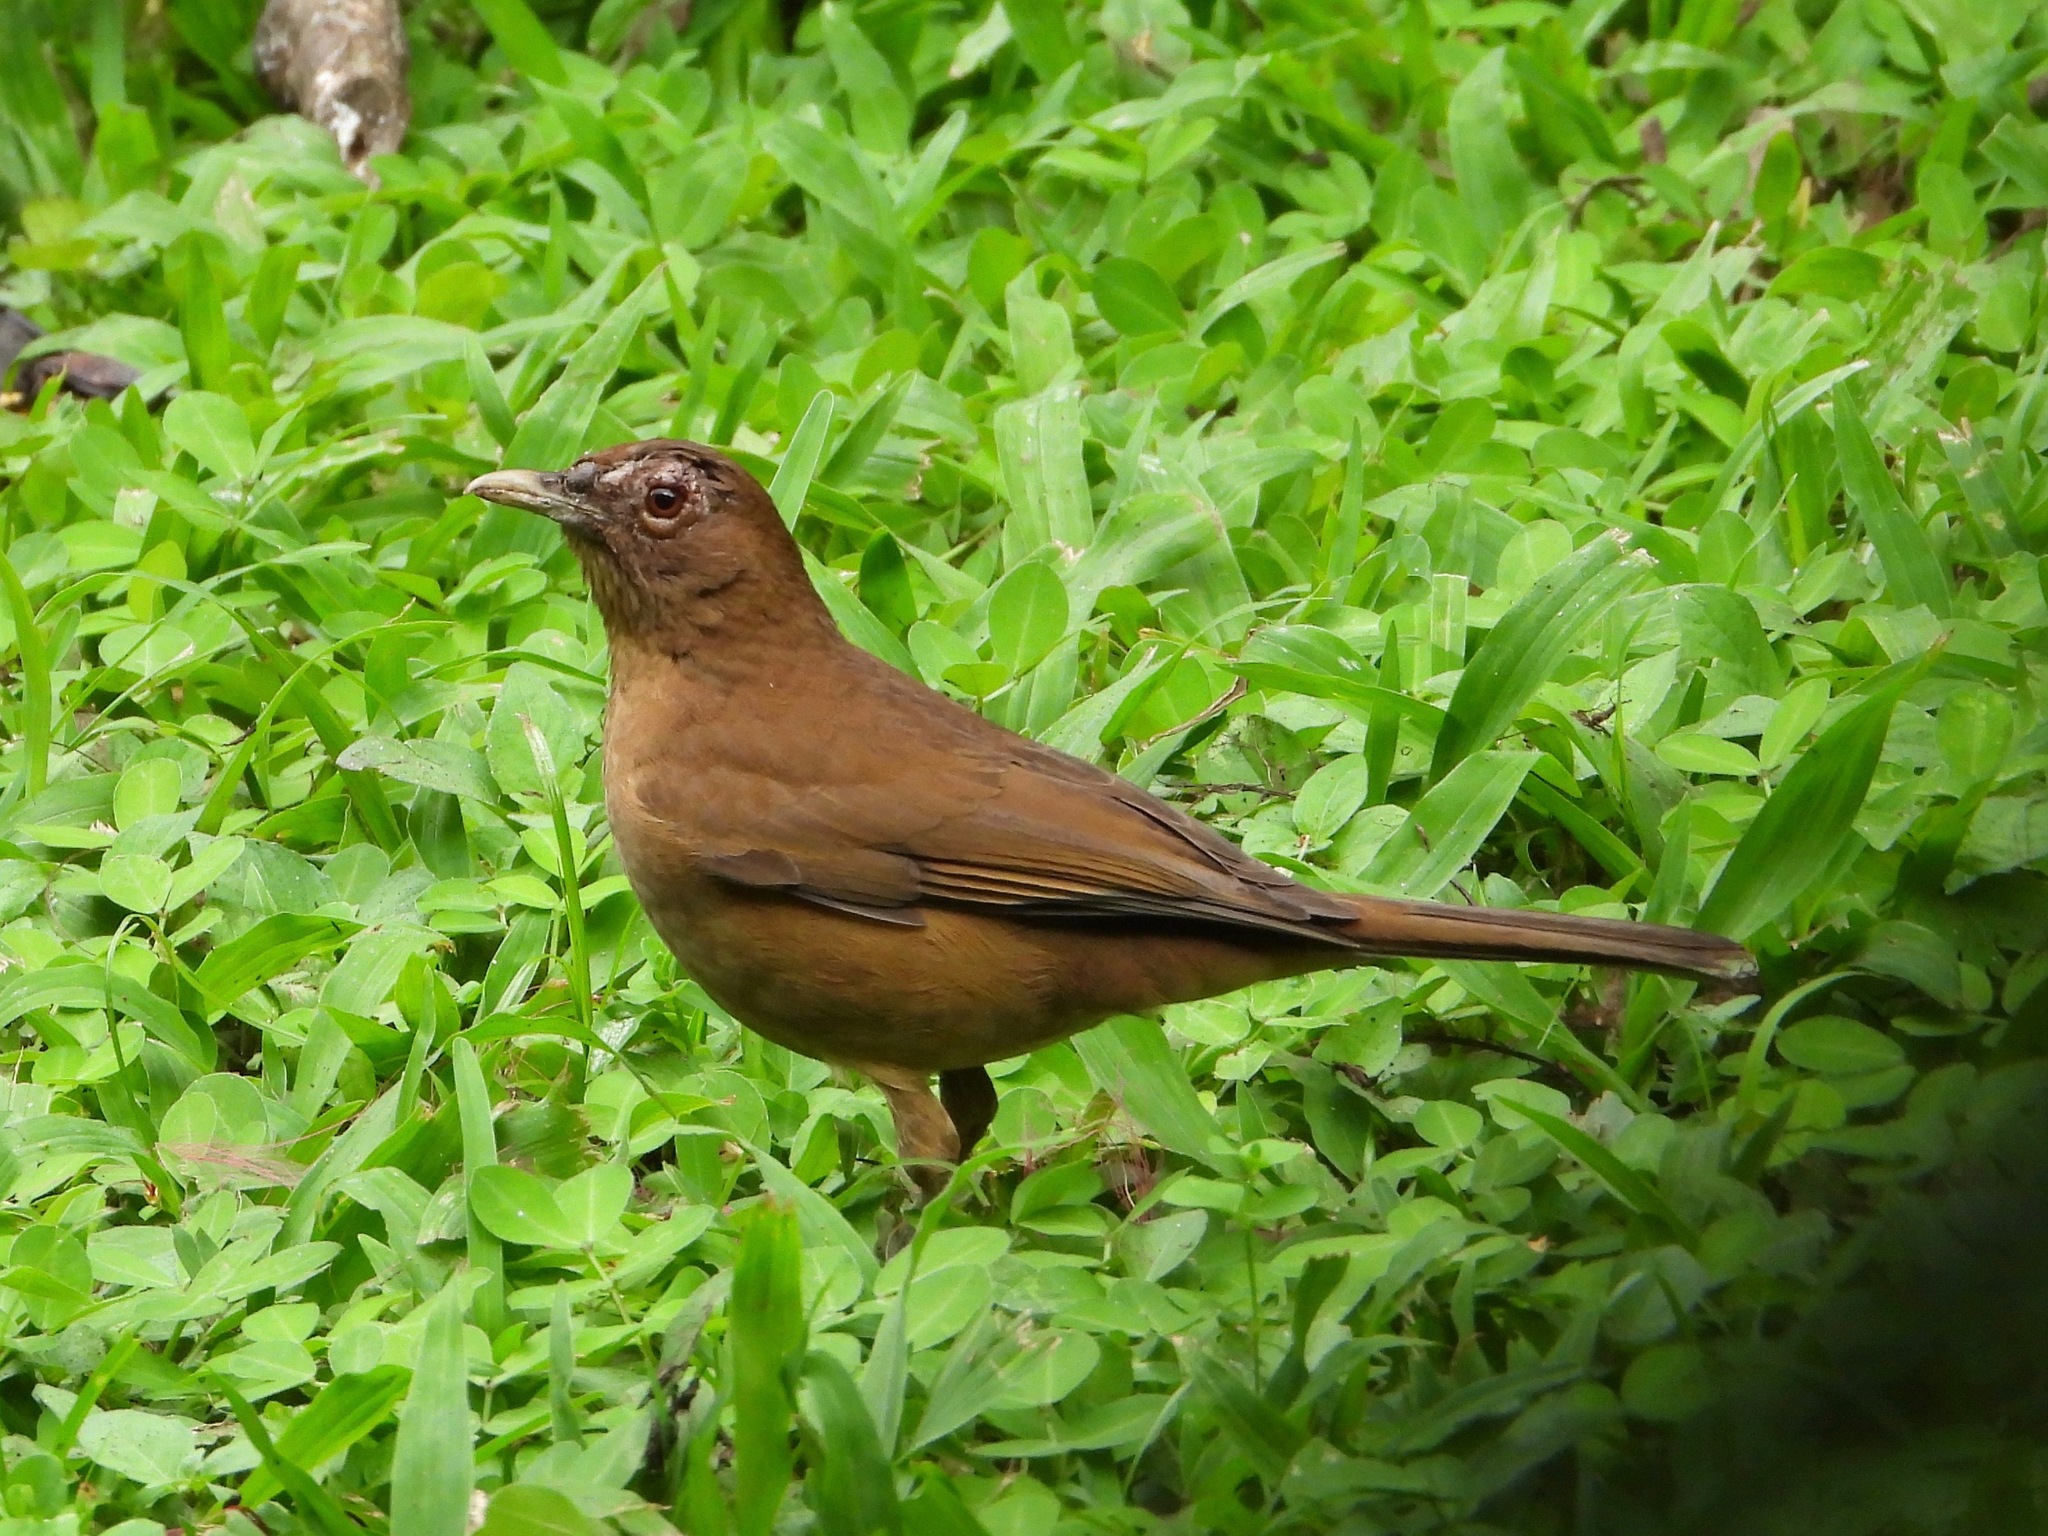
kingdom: Animalia
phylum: Chordata
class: Aves
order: Passeriformes
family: Turdidae
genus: Turdus
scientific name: Turdus grayi
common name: Clay-colored thrush
